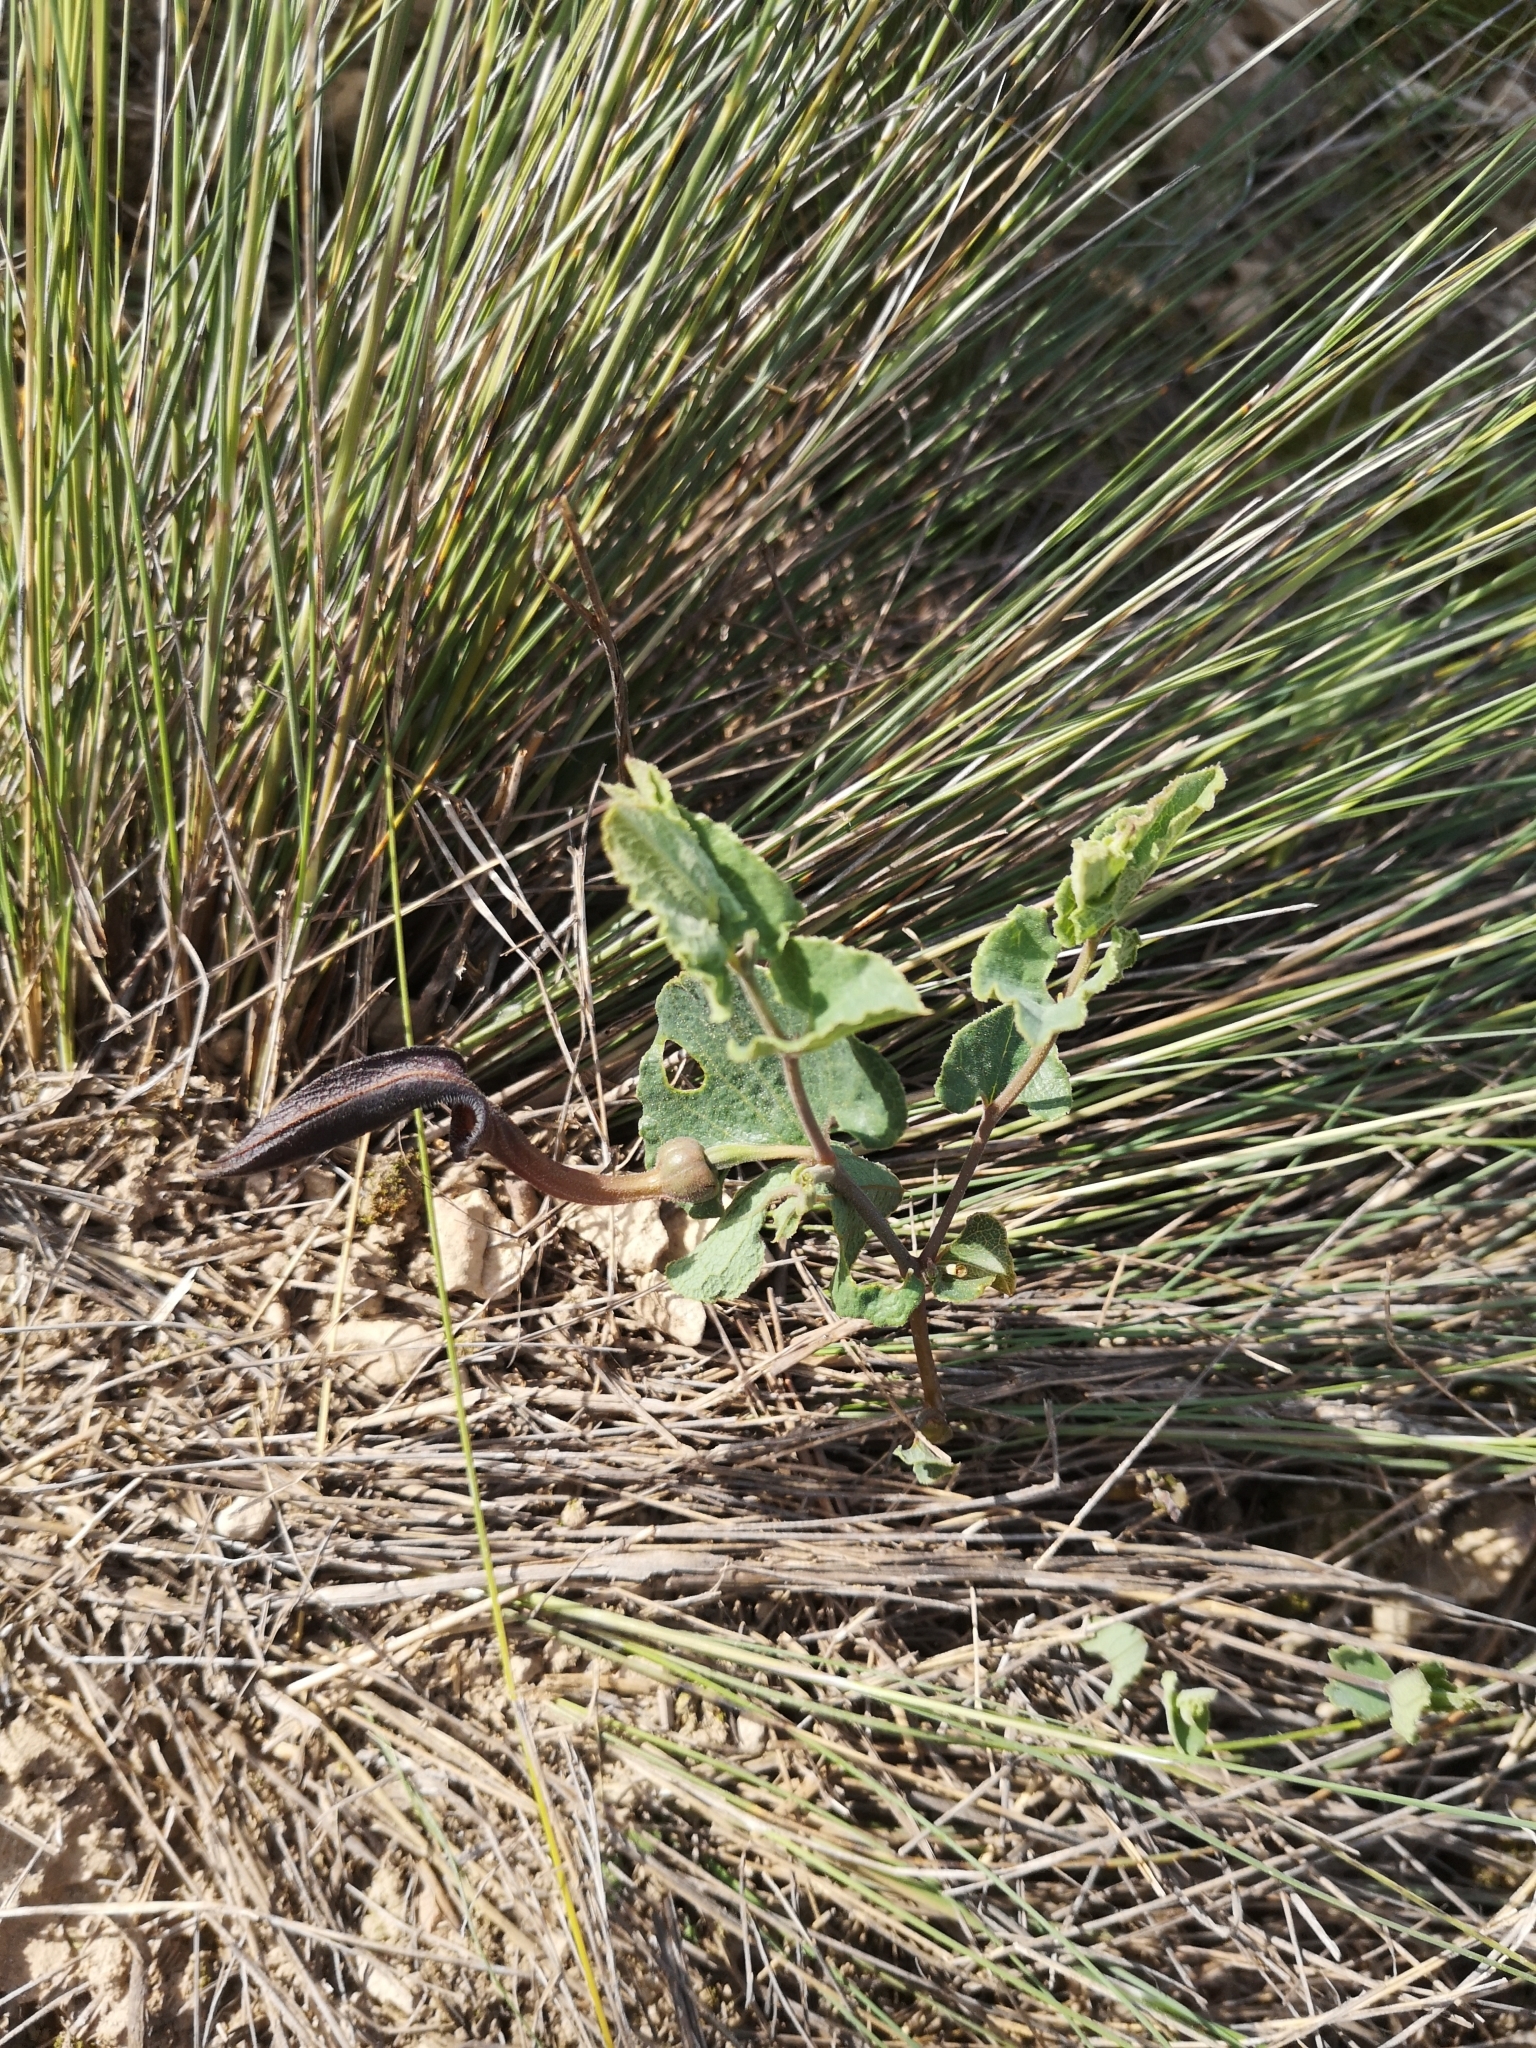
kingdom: Plantae
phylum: Tracheophyta
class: Magnoliopsida
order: Piperales
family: Aristolochiaceae
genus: Aristolochia
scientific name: Aristolochia pistolochia
